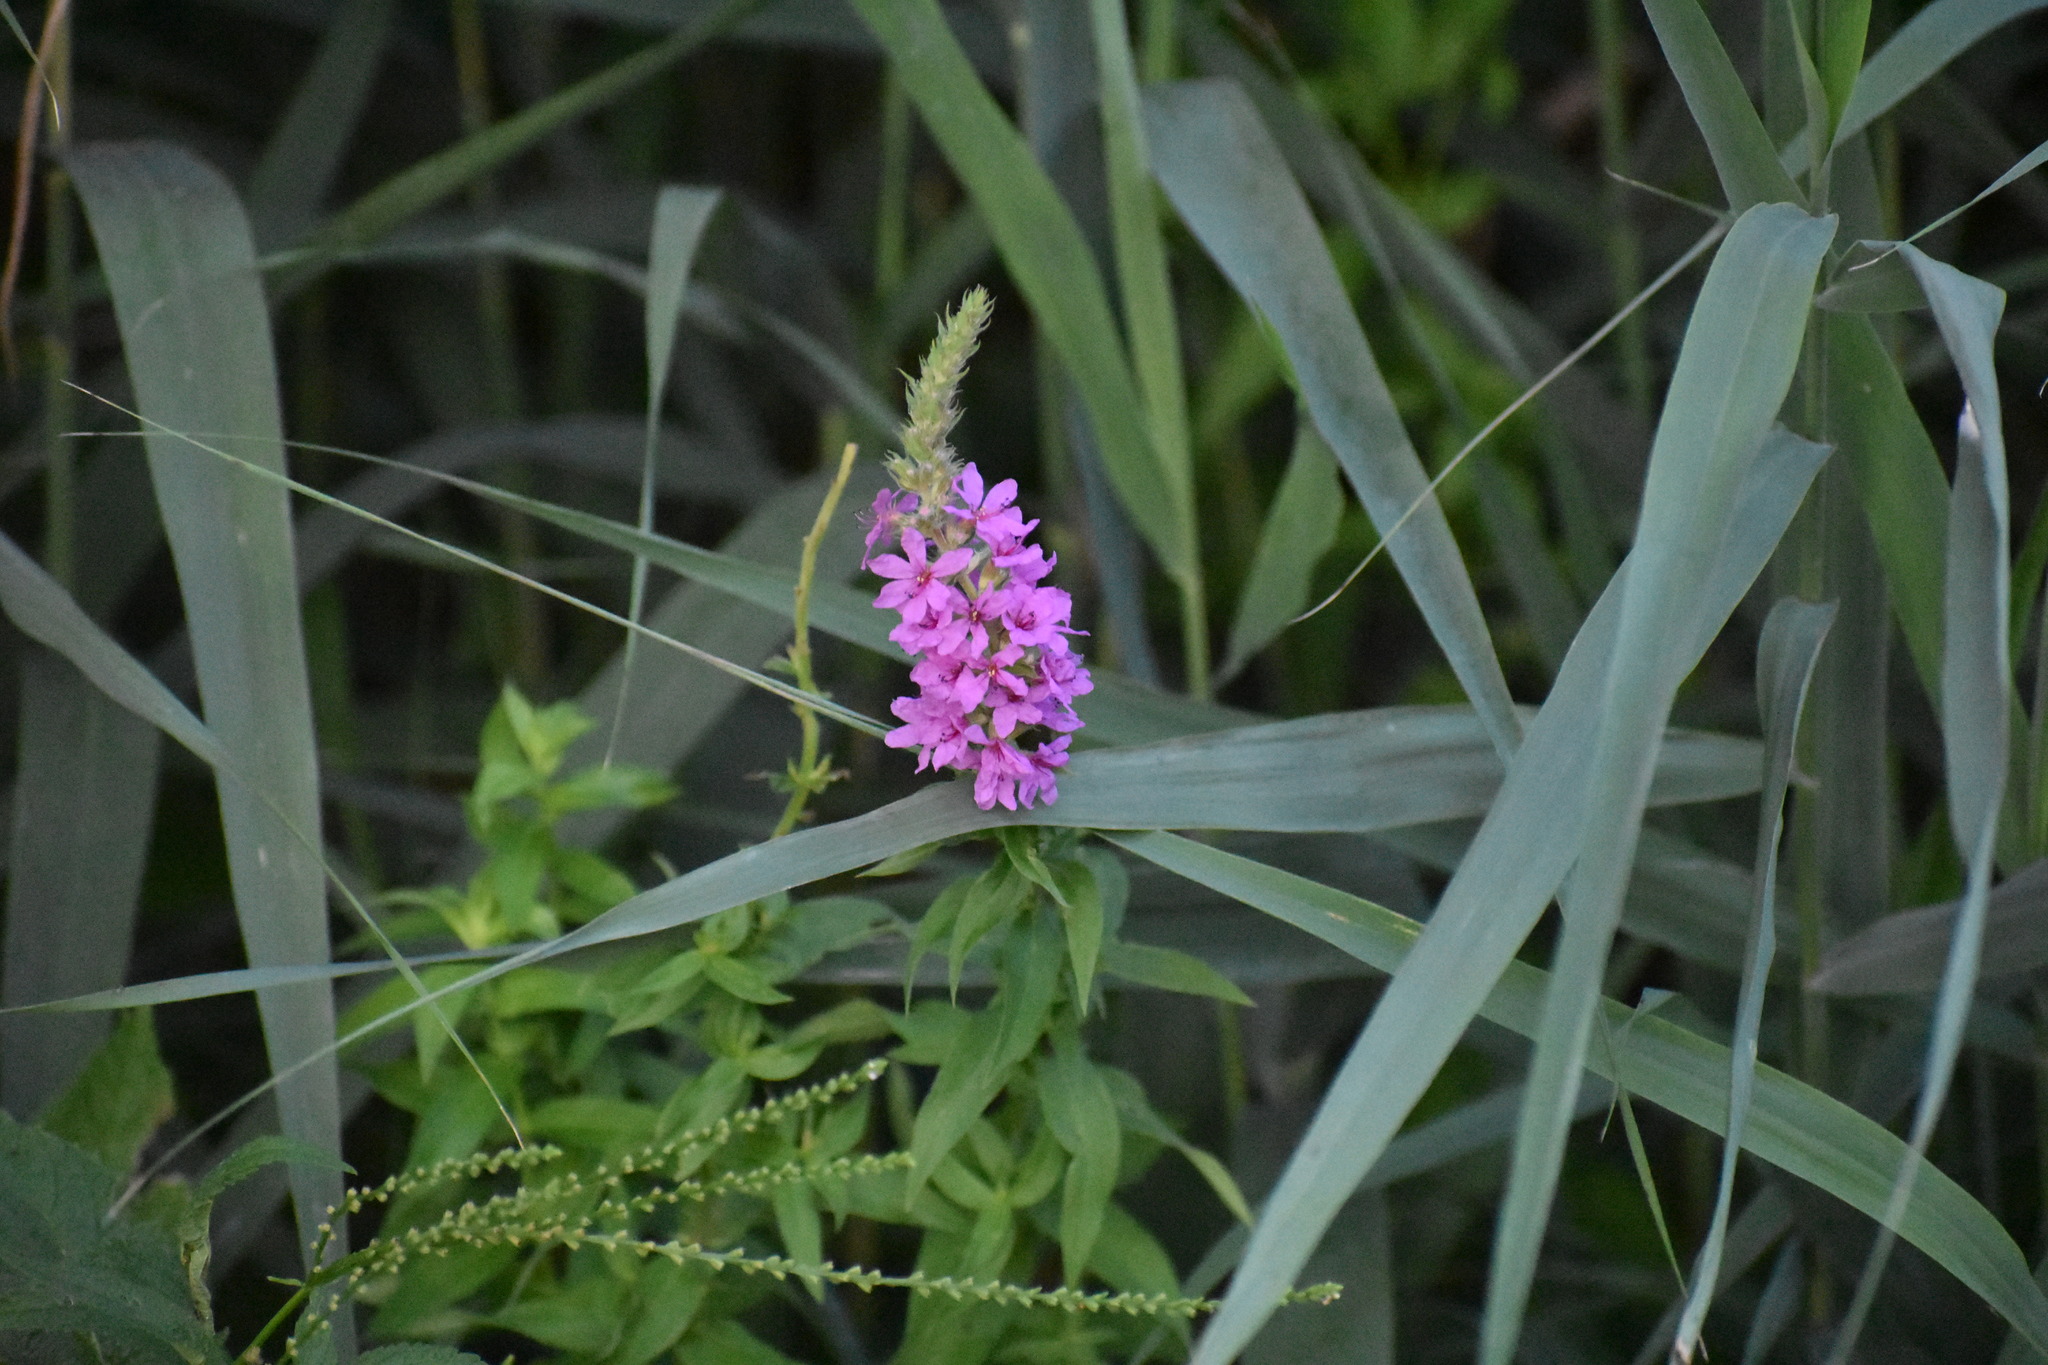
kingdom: Plantae
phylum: Tracheophyta
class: Magnoliopsida
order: Myrtales
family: Lythraceae
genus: Lythrum
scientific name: Lythrum salicaria
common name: Purple loosestrife
